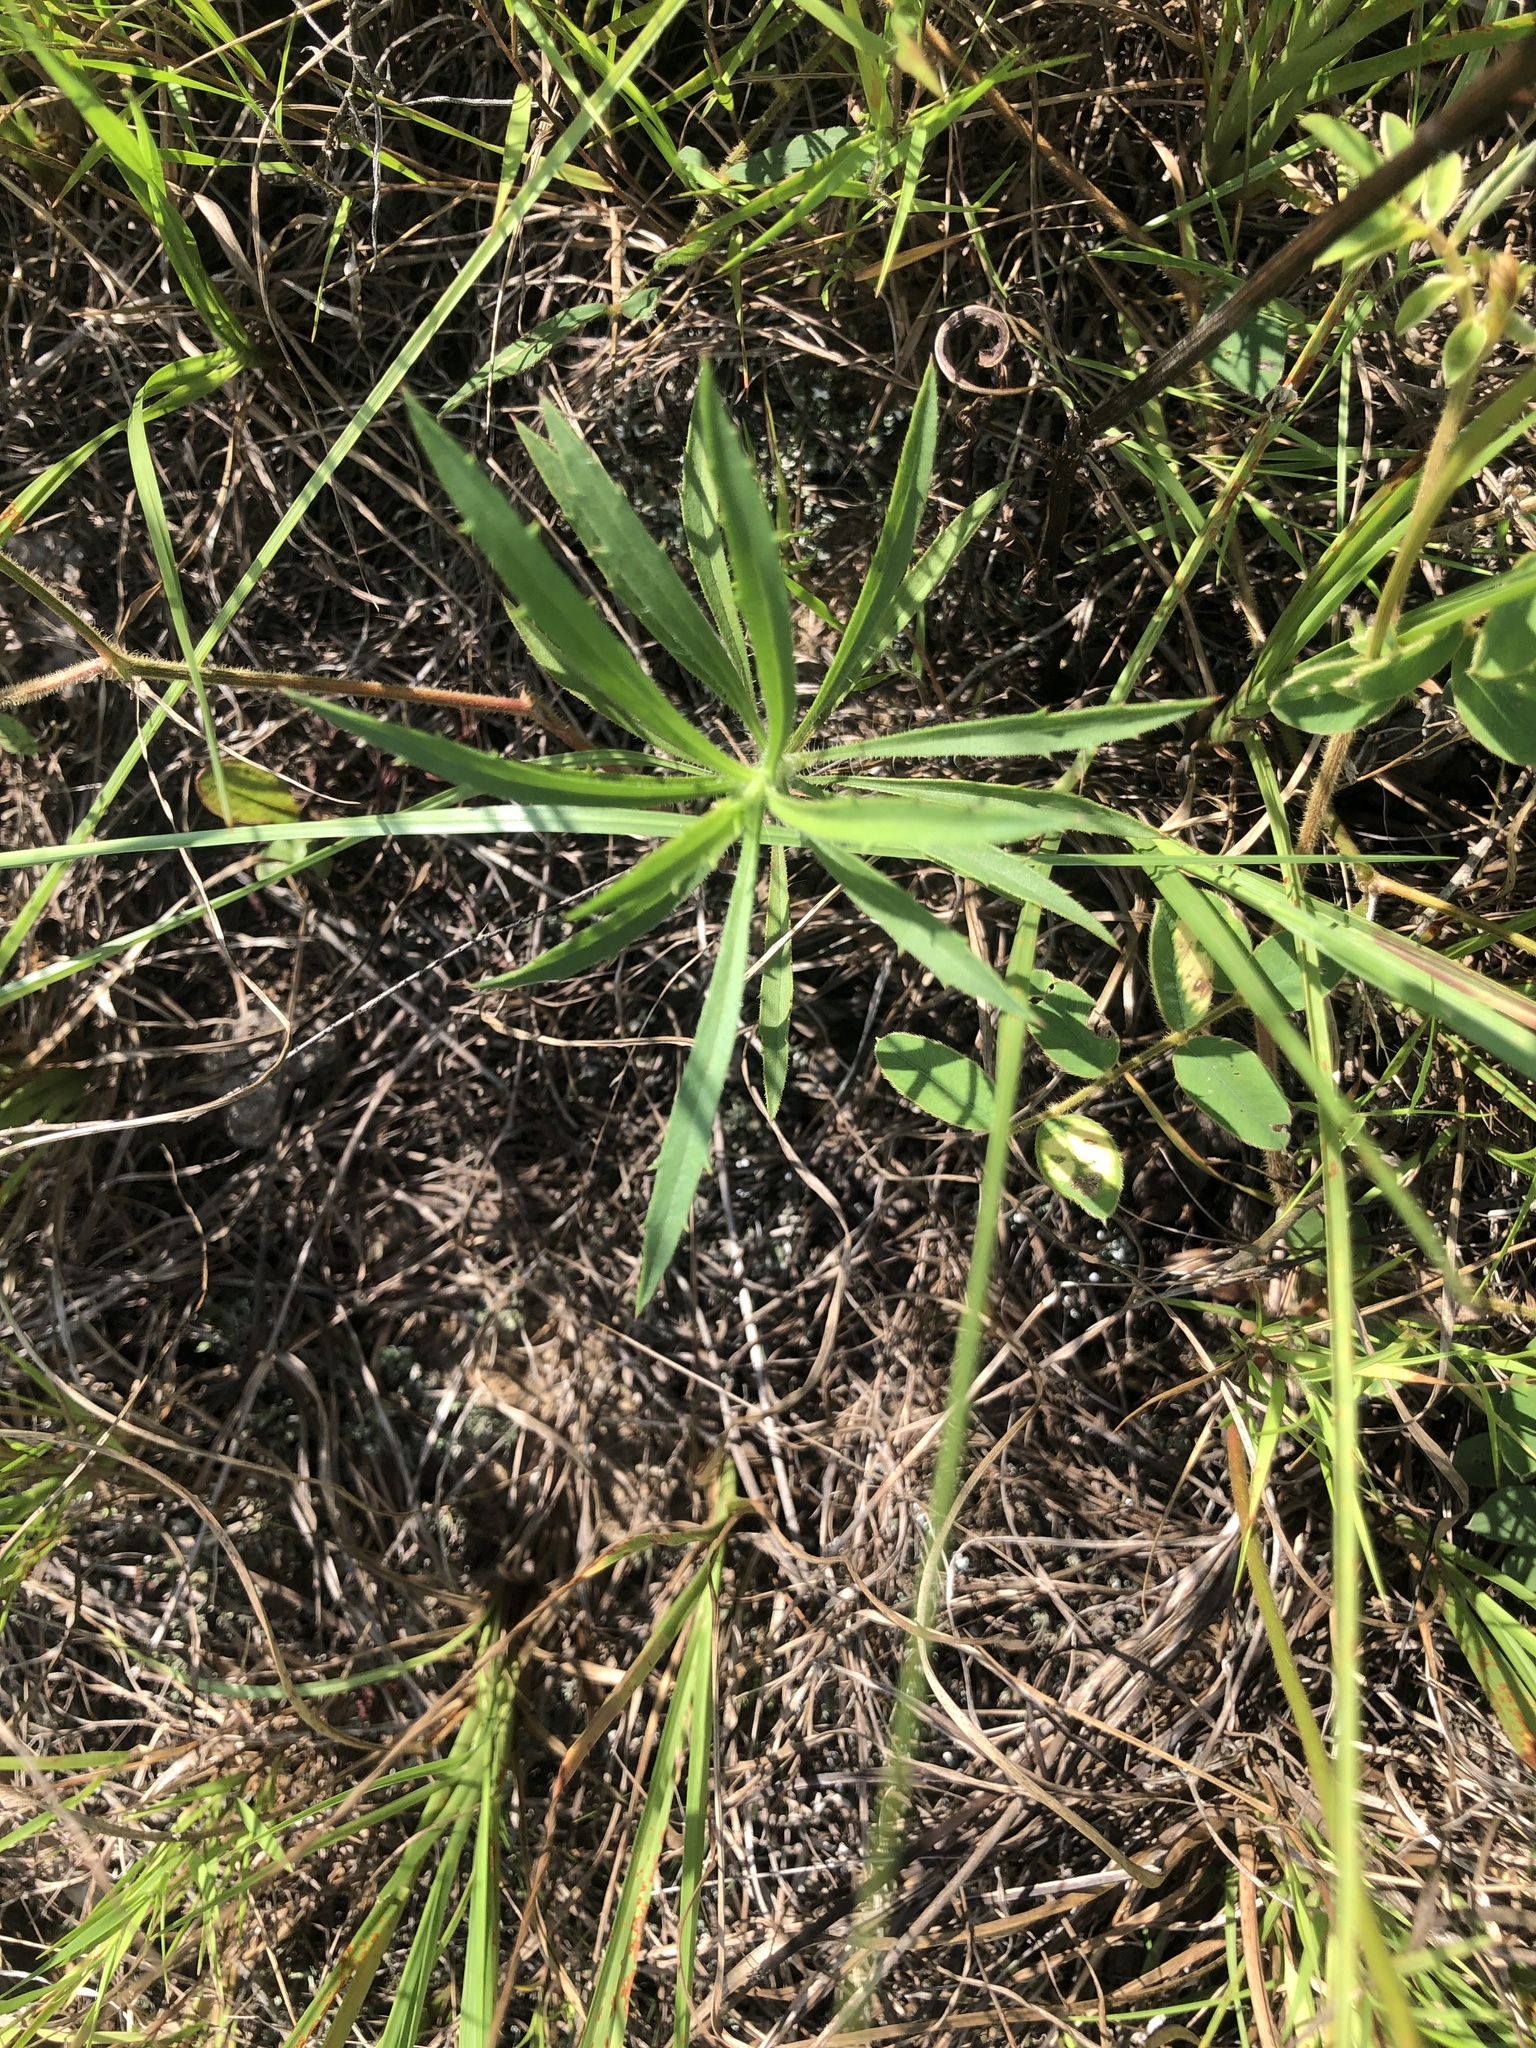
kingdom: Plantae
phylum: Tracheophyta
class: Magnoliopsida
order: Asterales
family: Asteraceae
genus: Croptilon
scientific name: Croptilon divaricatum
